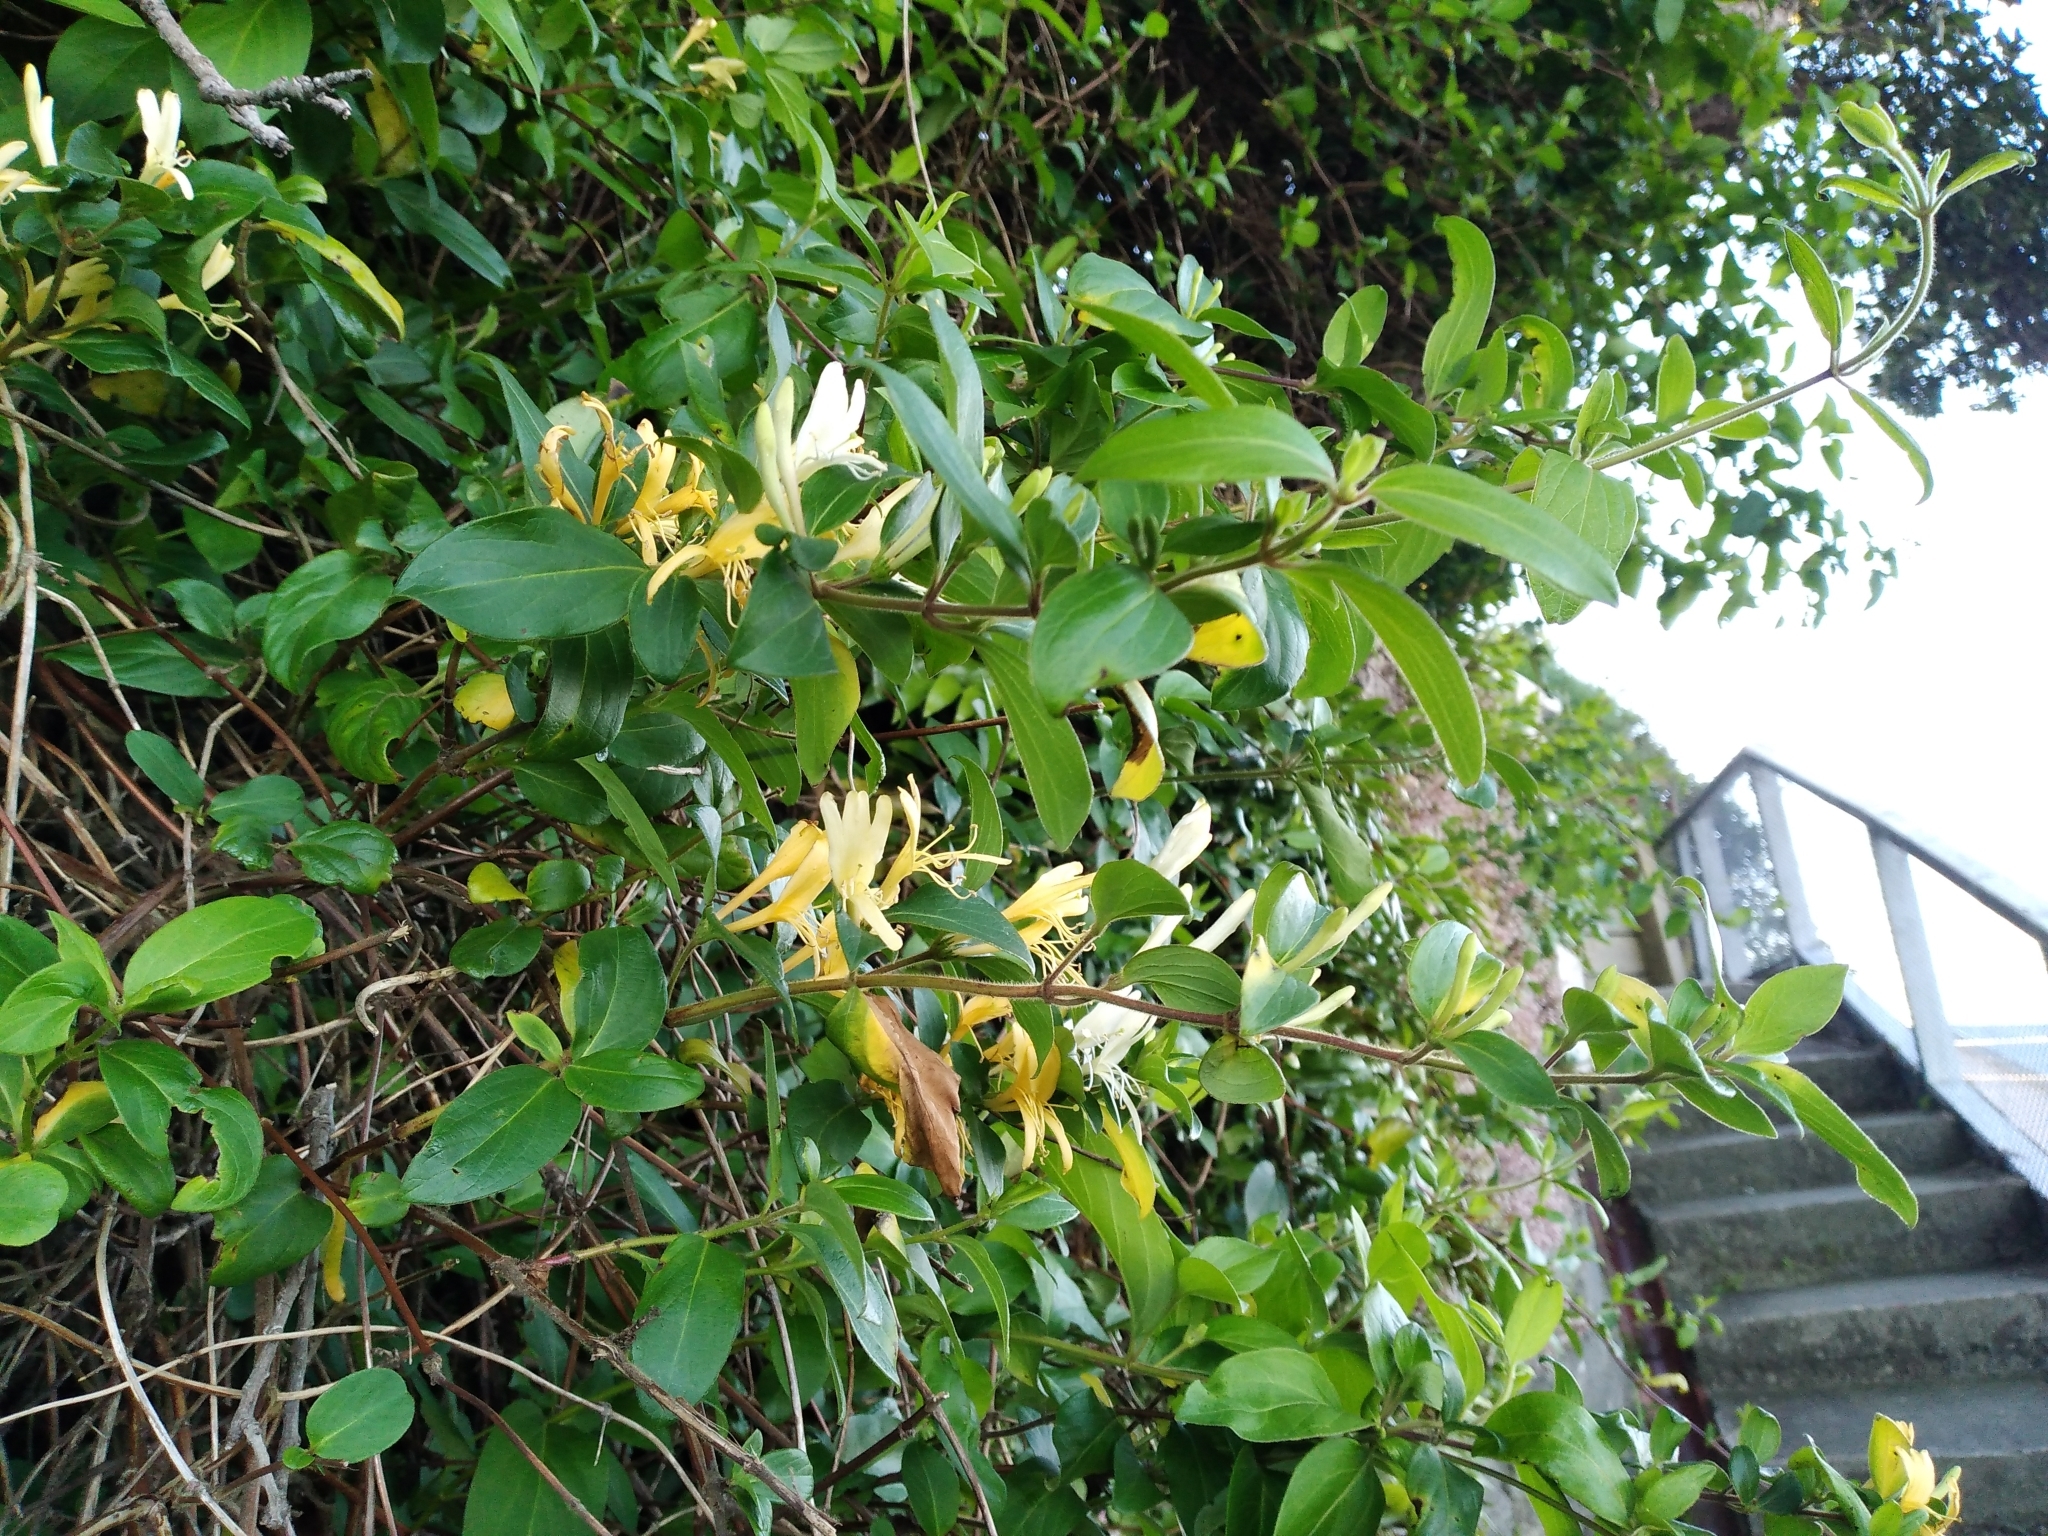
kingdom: Plantae
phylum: Tracheophyta
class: Magnoliopsida
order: Dipsacales
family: Caprifoliaceae
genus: Lonicera
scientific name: Lonicera japonica
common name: Japanese honeysuckle
